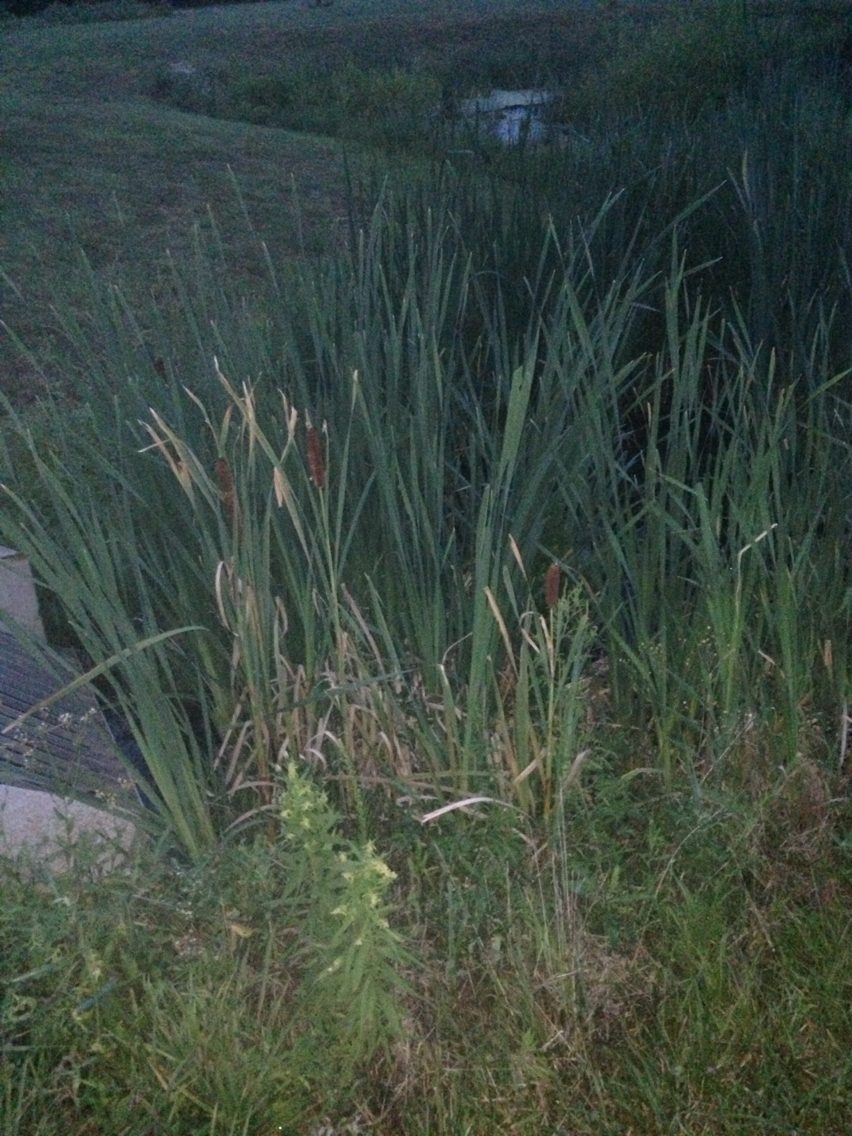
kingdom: Plantae
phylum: Tracheophyta
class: Liliopsida
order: Poales
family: Typhaceae
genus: Typha
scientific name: Typha latifolia
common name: Broadleaf cattail
